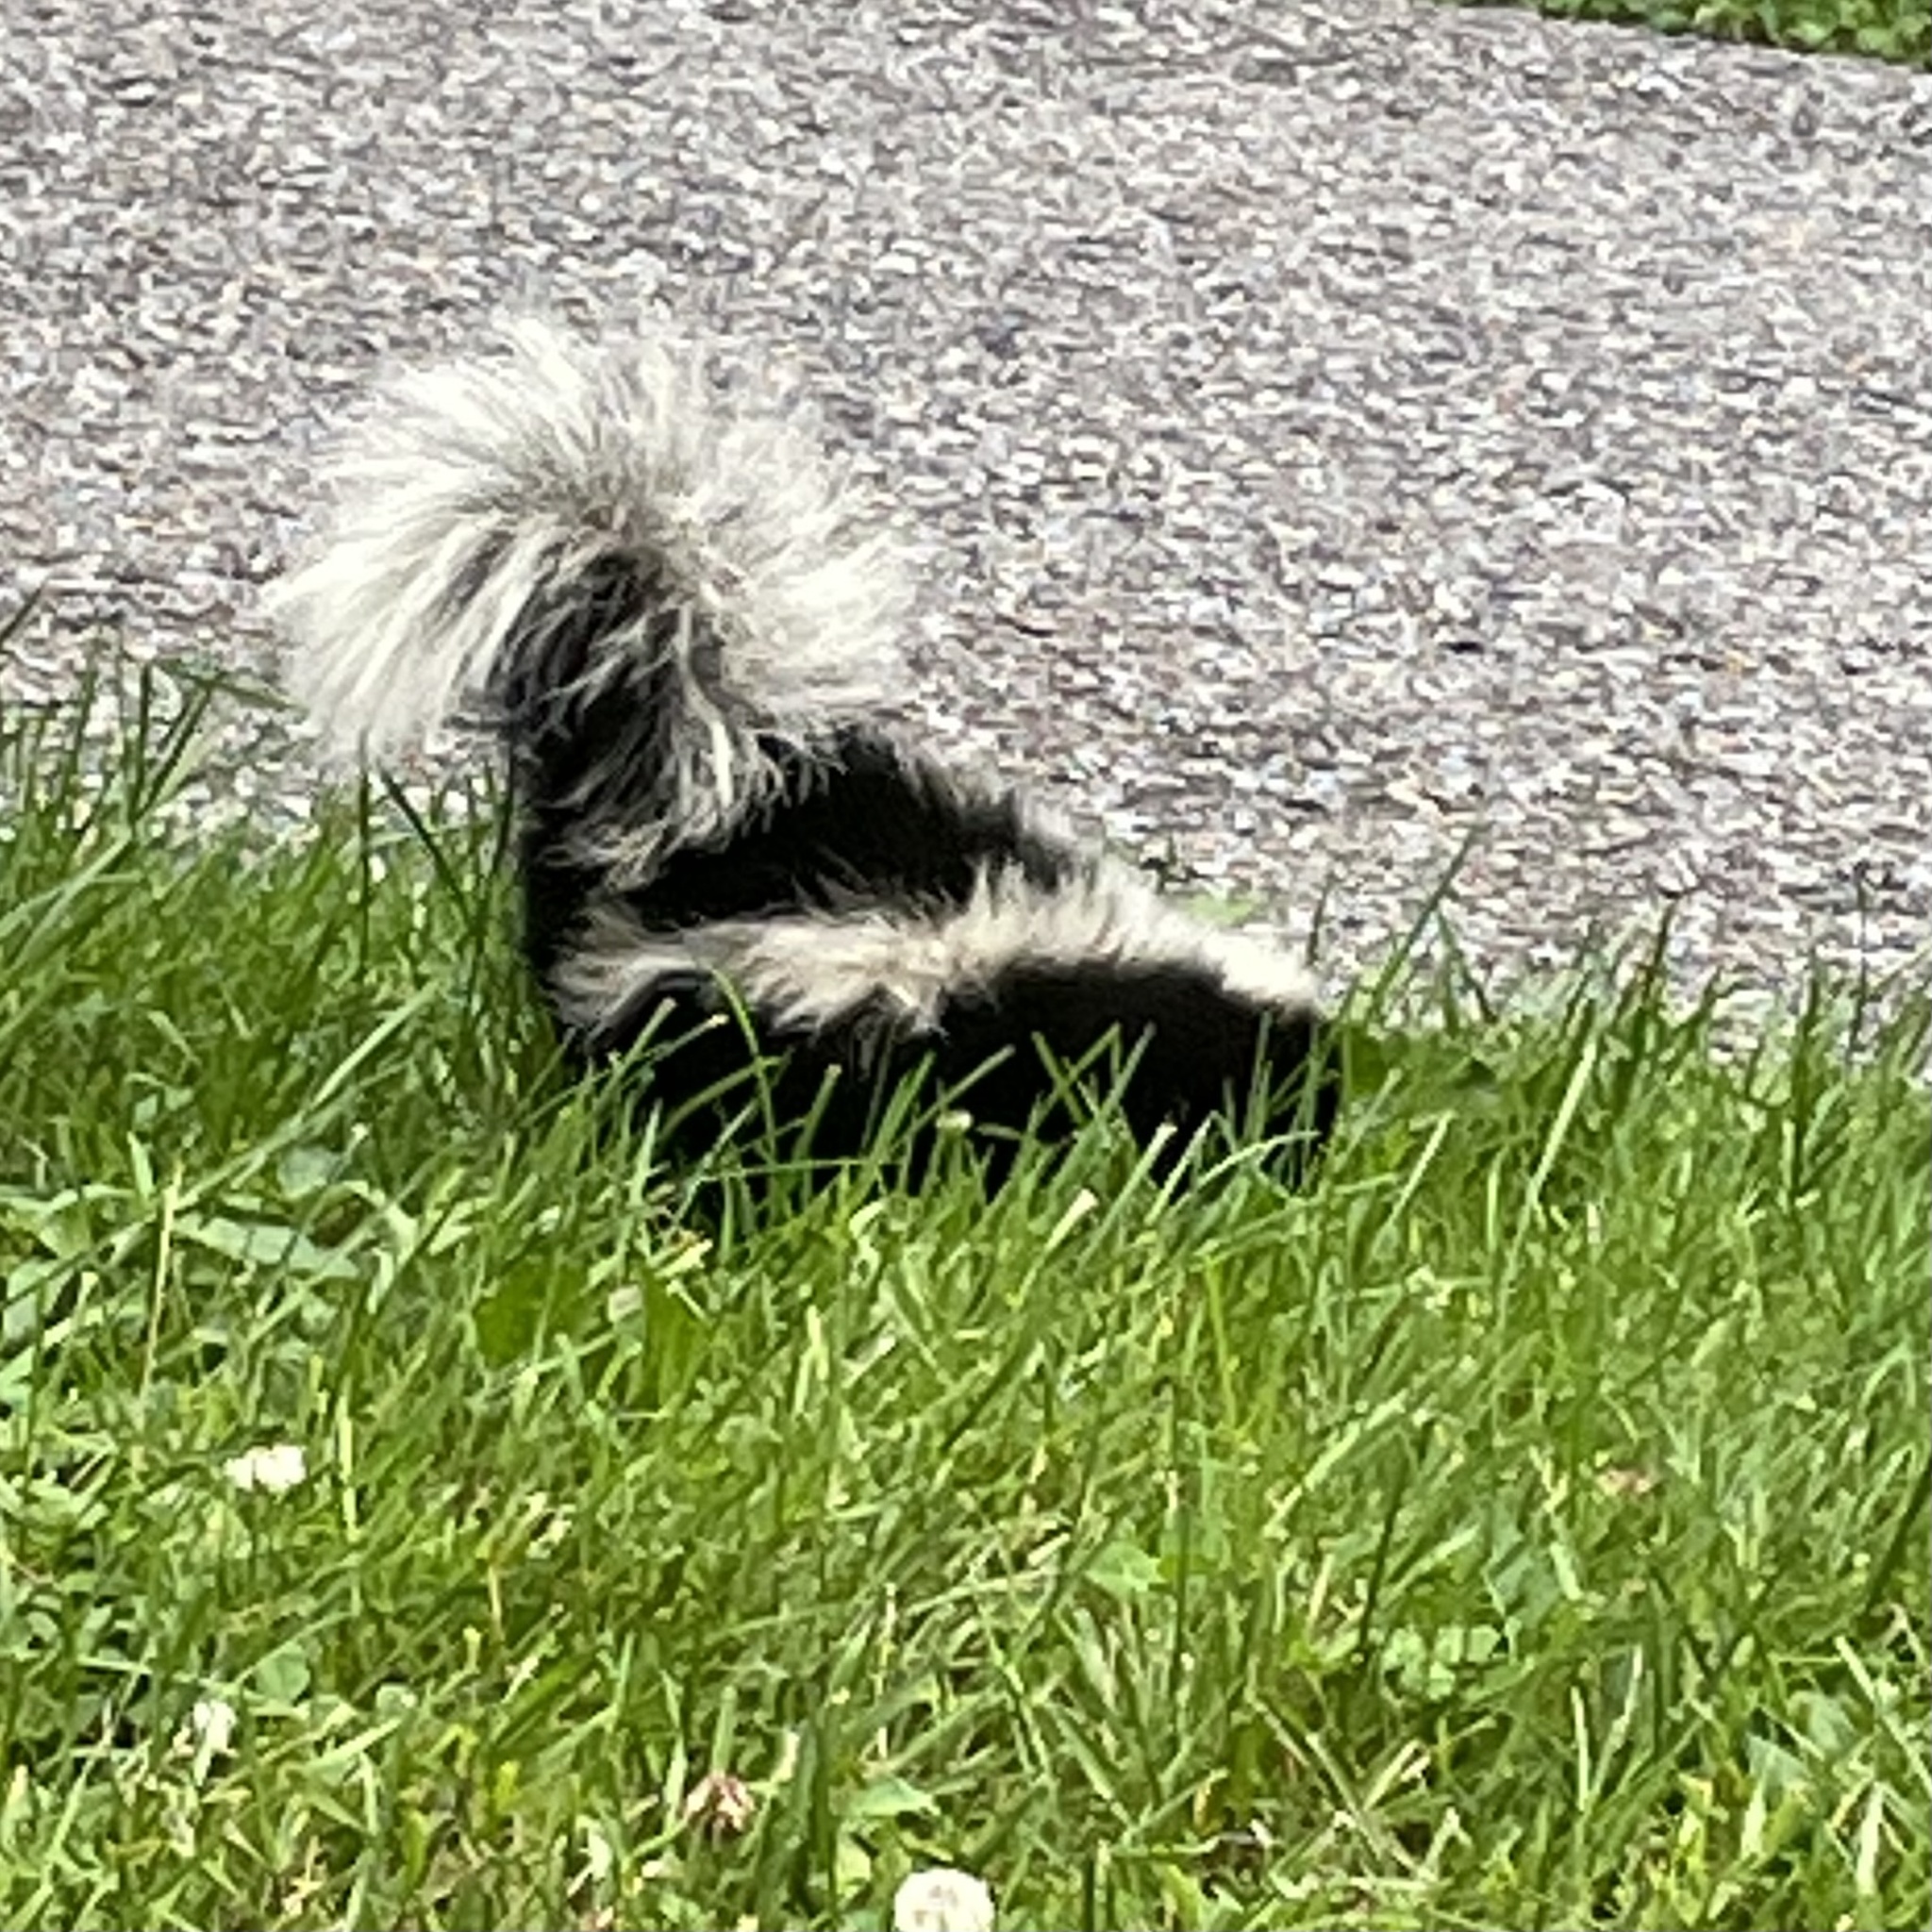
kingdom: Animalia
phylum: Chordata
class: Mammalia
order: Carnivora
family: Mephitidae
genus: Mephitis
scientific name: Mephitis mephitis
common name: Striped skunk
